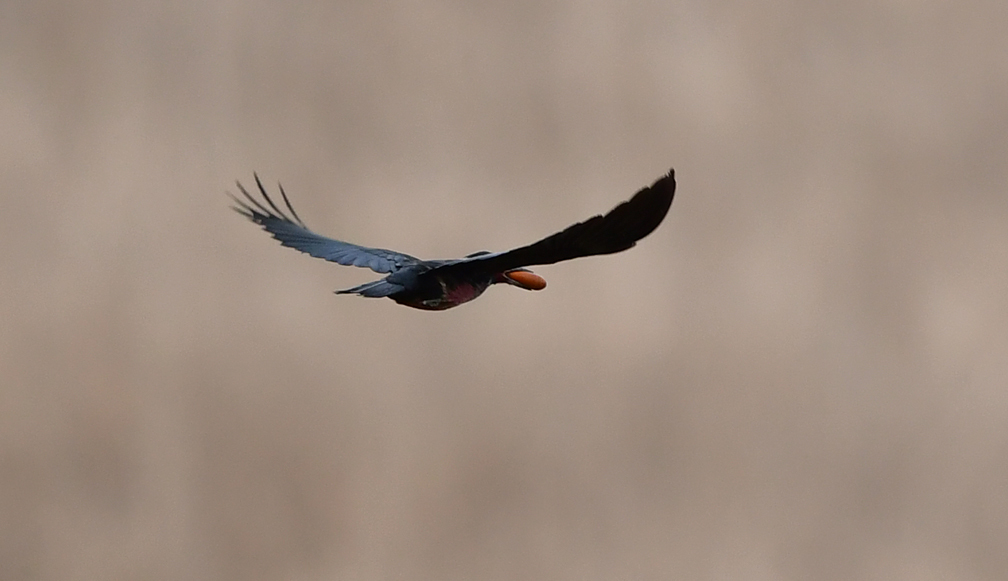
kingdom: Animalia
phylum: Chordata
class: Aves
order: Piciformes
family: Picidae
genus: Melanerpes
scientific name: Melanerpes lewis
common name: Lewis's woodpecker
